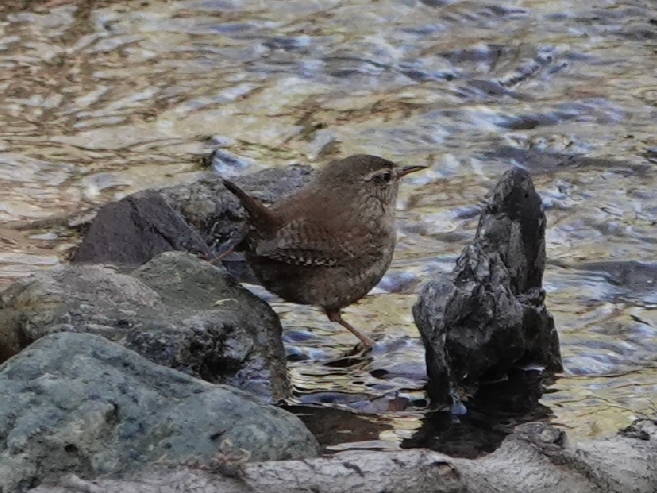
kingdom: Animalia
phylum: Chordata
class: Aves
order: Passeriformes
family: Troglodytidae
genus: Troglodytes
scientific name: Troglodytes troglodytes
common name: Eurasian wren
